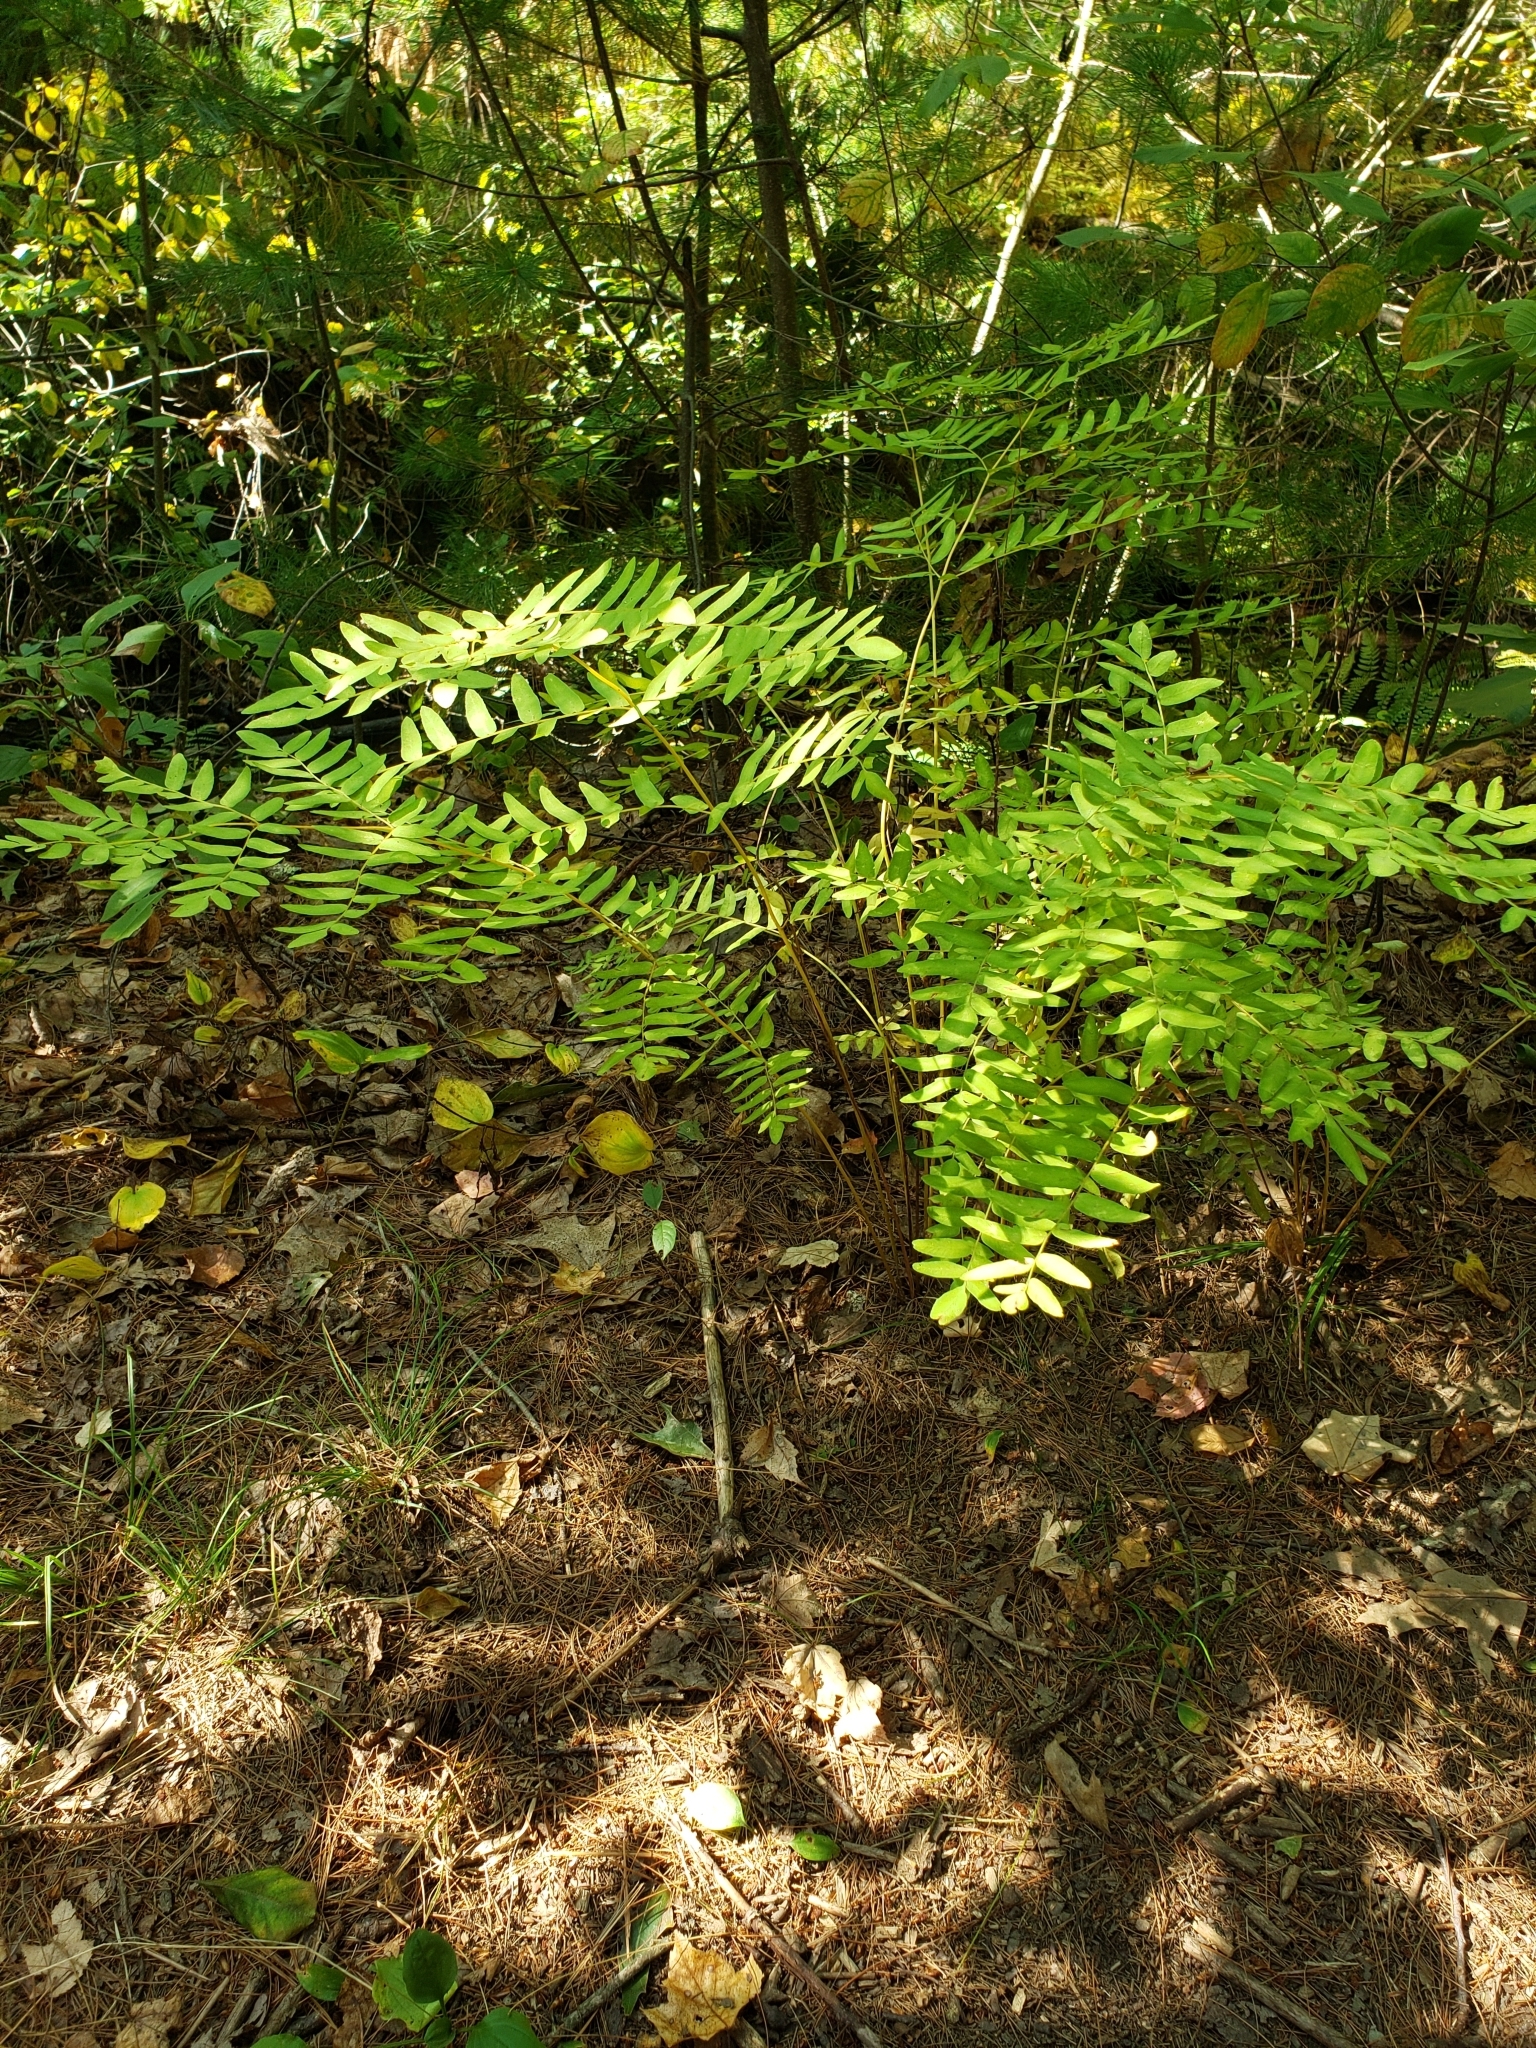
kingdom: Plantae
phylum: Tracheophyta
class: Polypodiopsida
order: Osmundales
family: Osmundaceae
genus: Osmunda
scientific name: Osmunda spectabilis
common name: American royal fern
